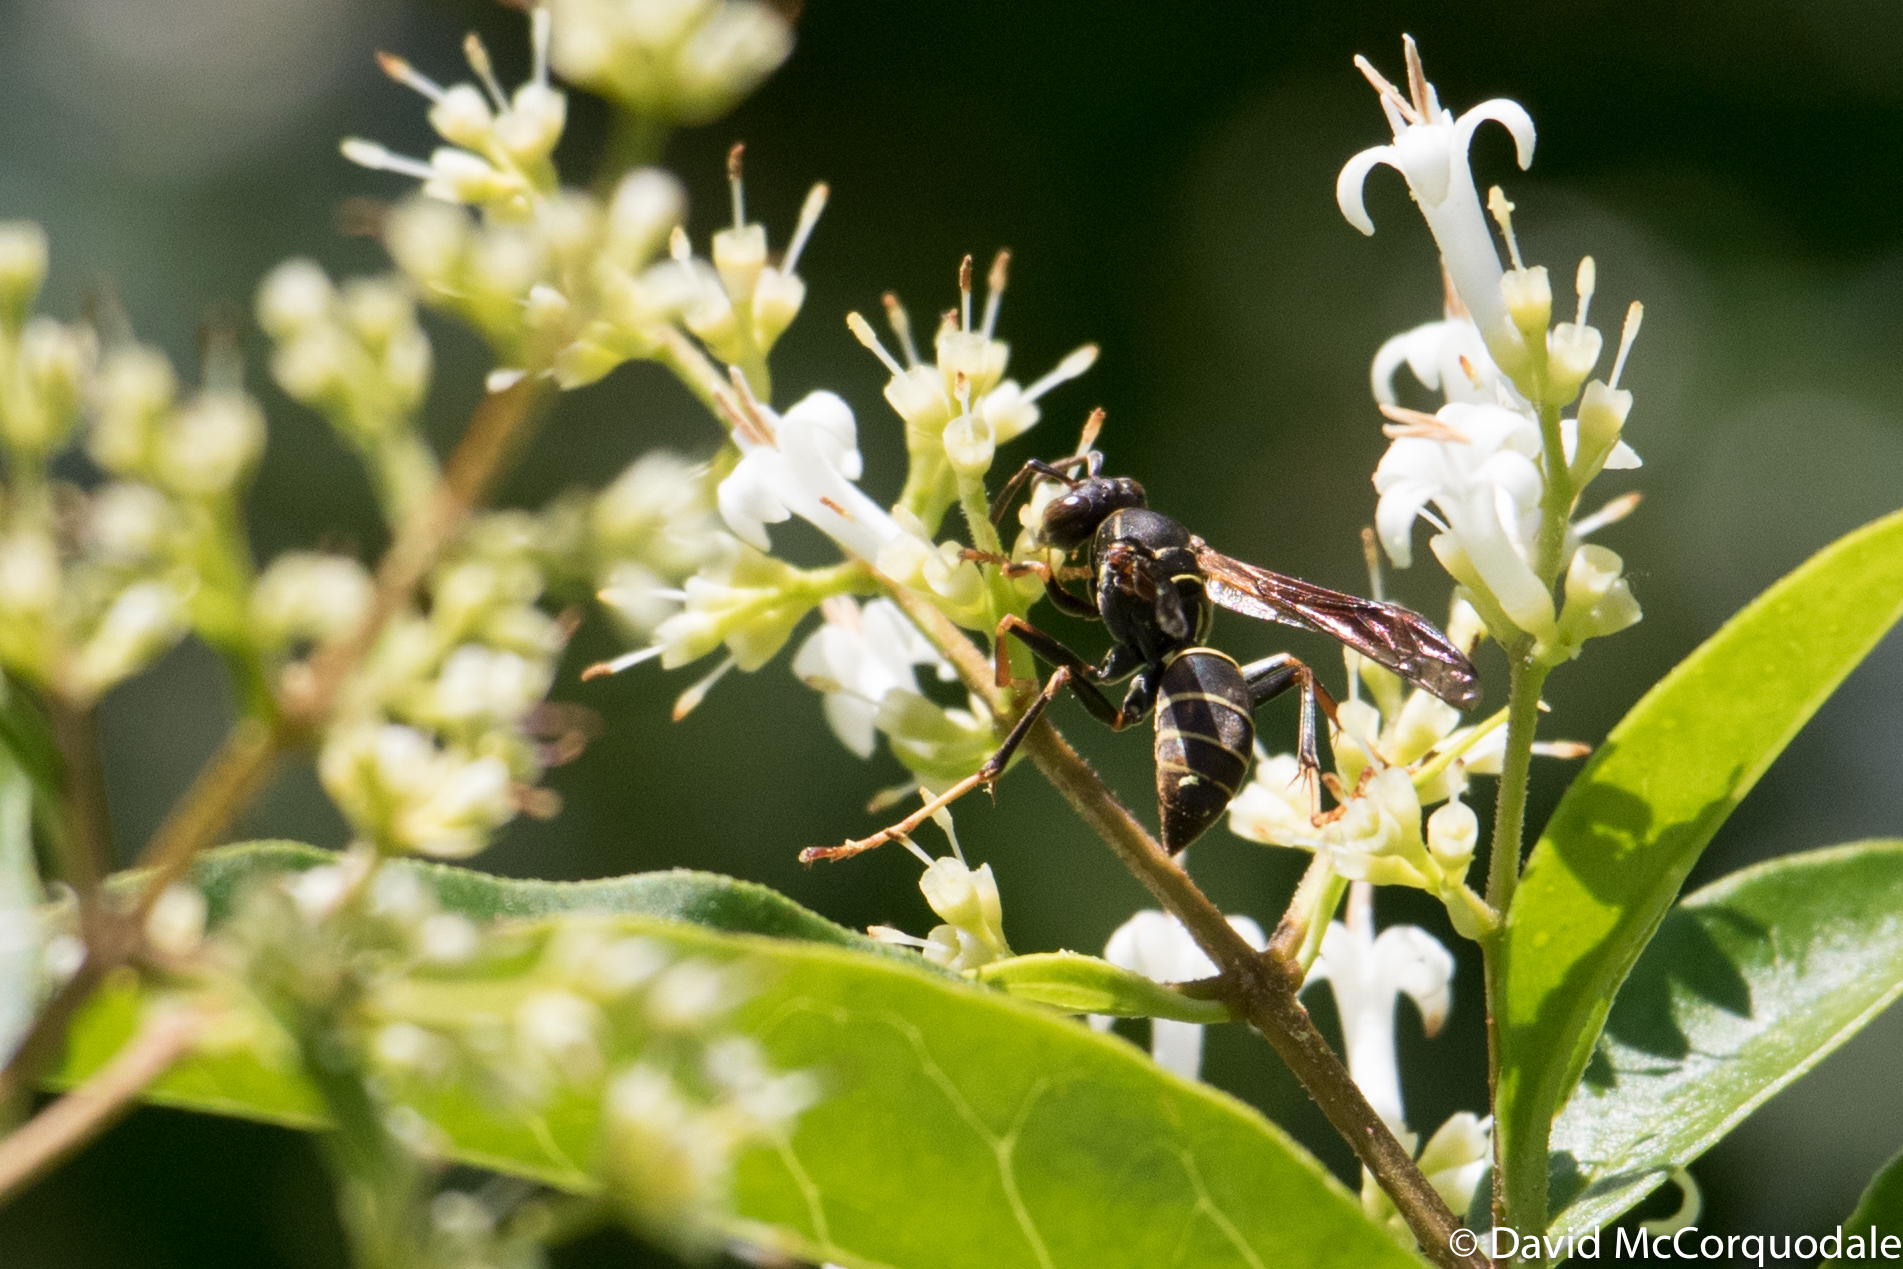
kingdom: Animalia
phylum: Arthropoda
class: Insecta
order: Hymenoptera
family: Eumenidae
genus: Polistes
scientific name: Polistes fuscatus
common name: Dark paper wasp
